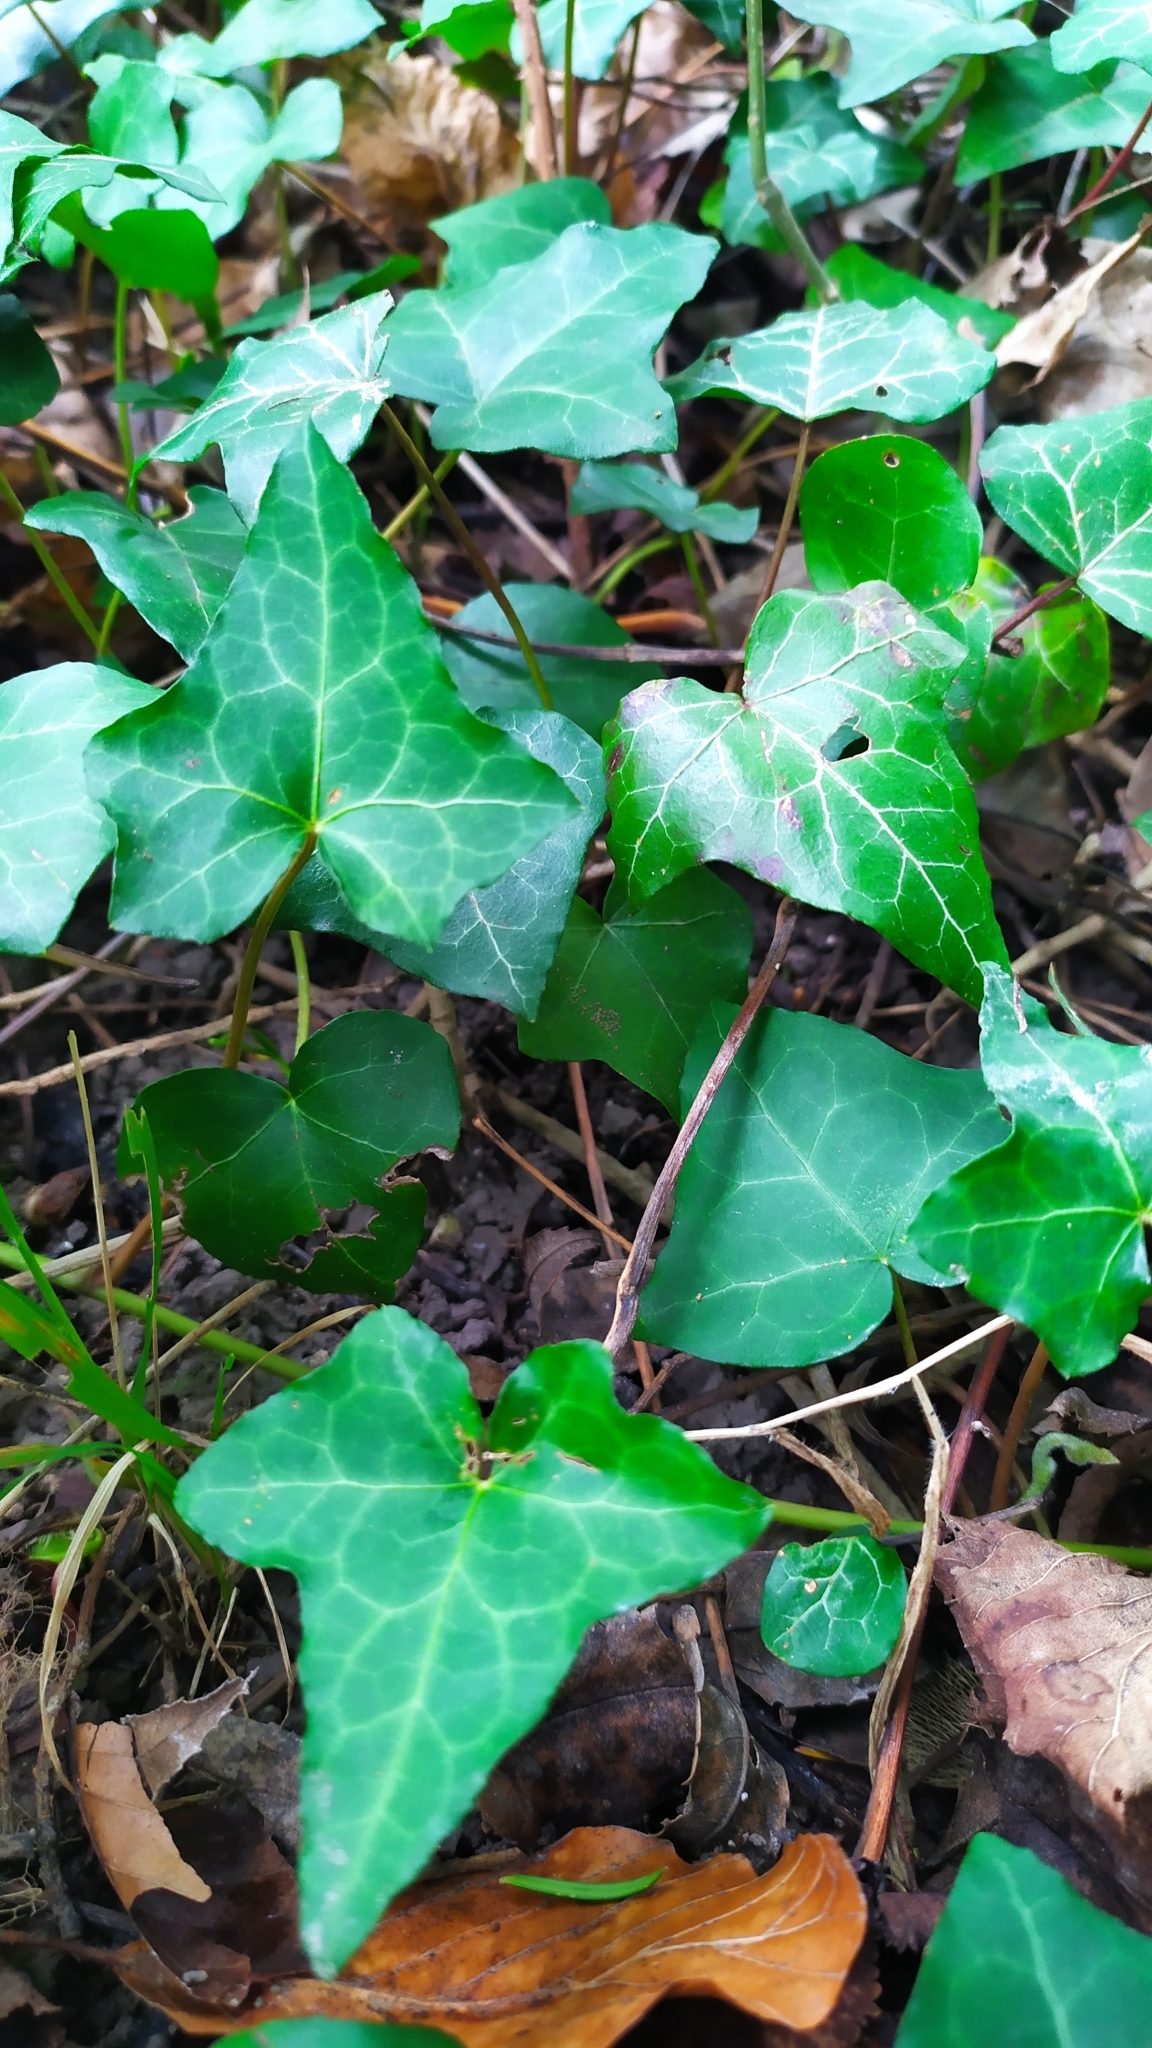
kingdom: Plantae
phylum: Tracheophyta
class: Magnoliopsida
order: Apiales
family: Araliaceae
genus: Hedera
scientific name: Hedera helix
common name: Ivy
